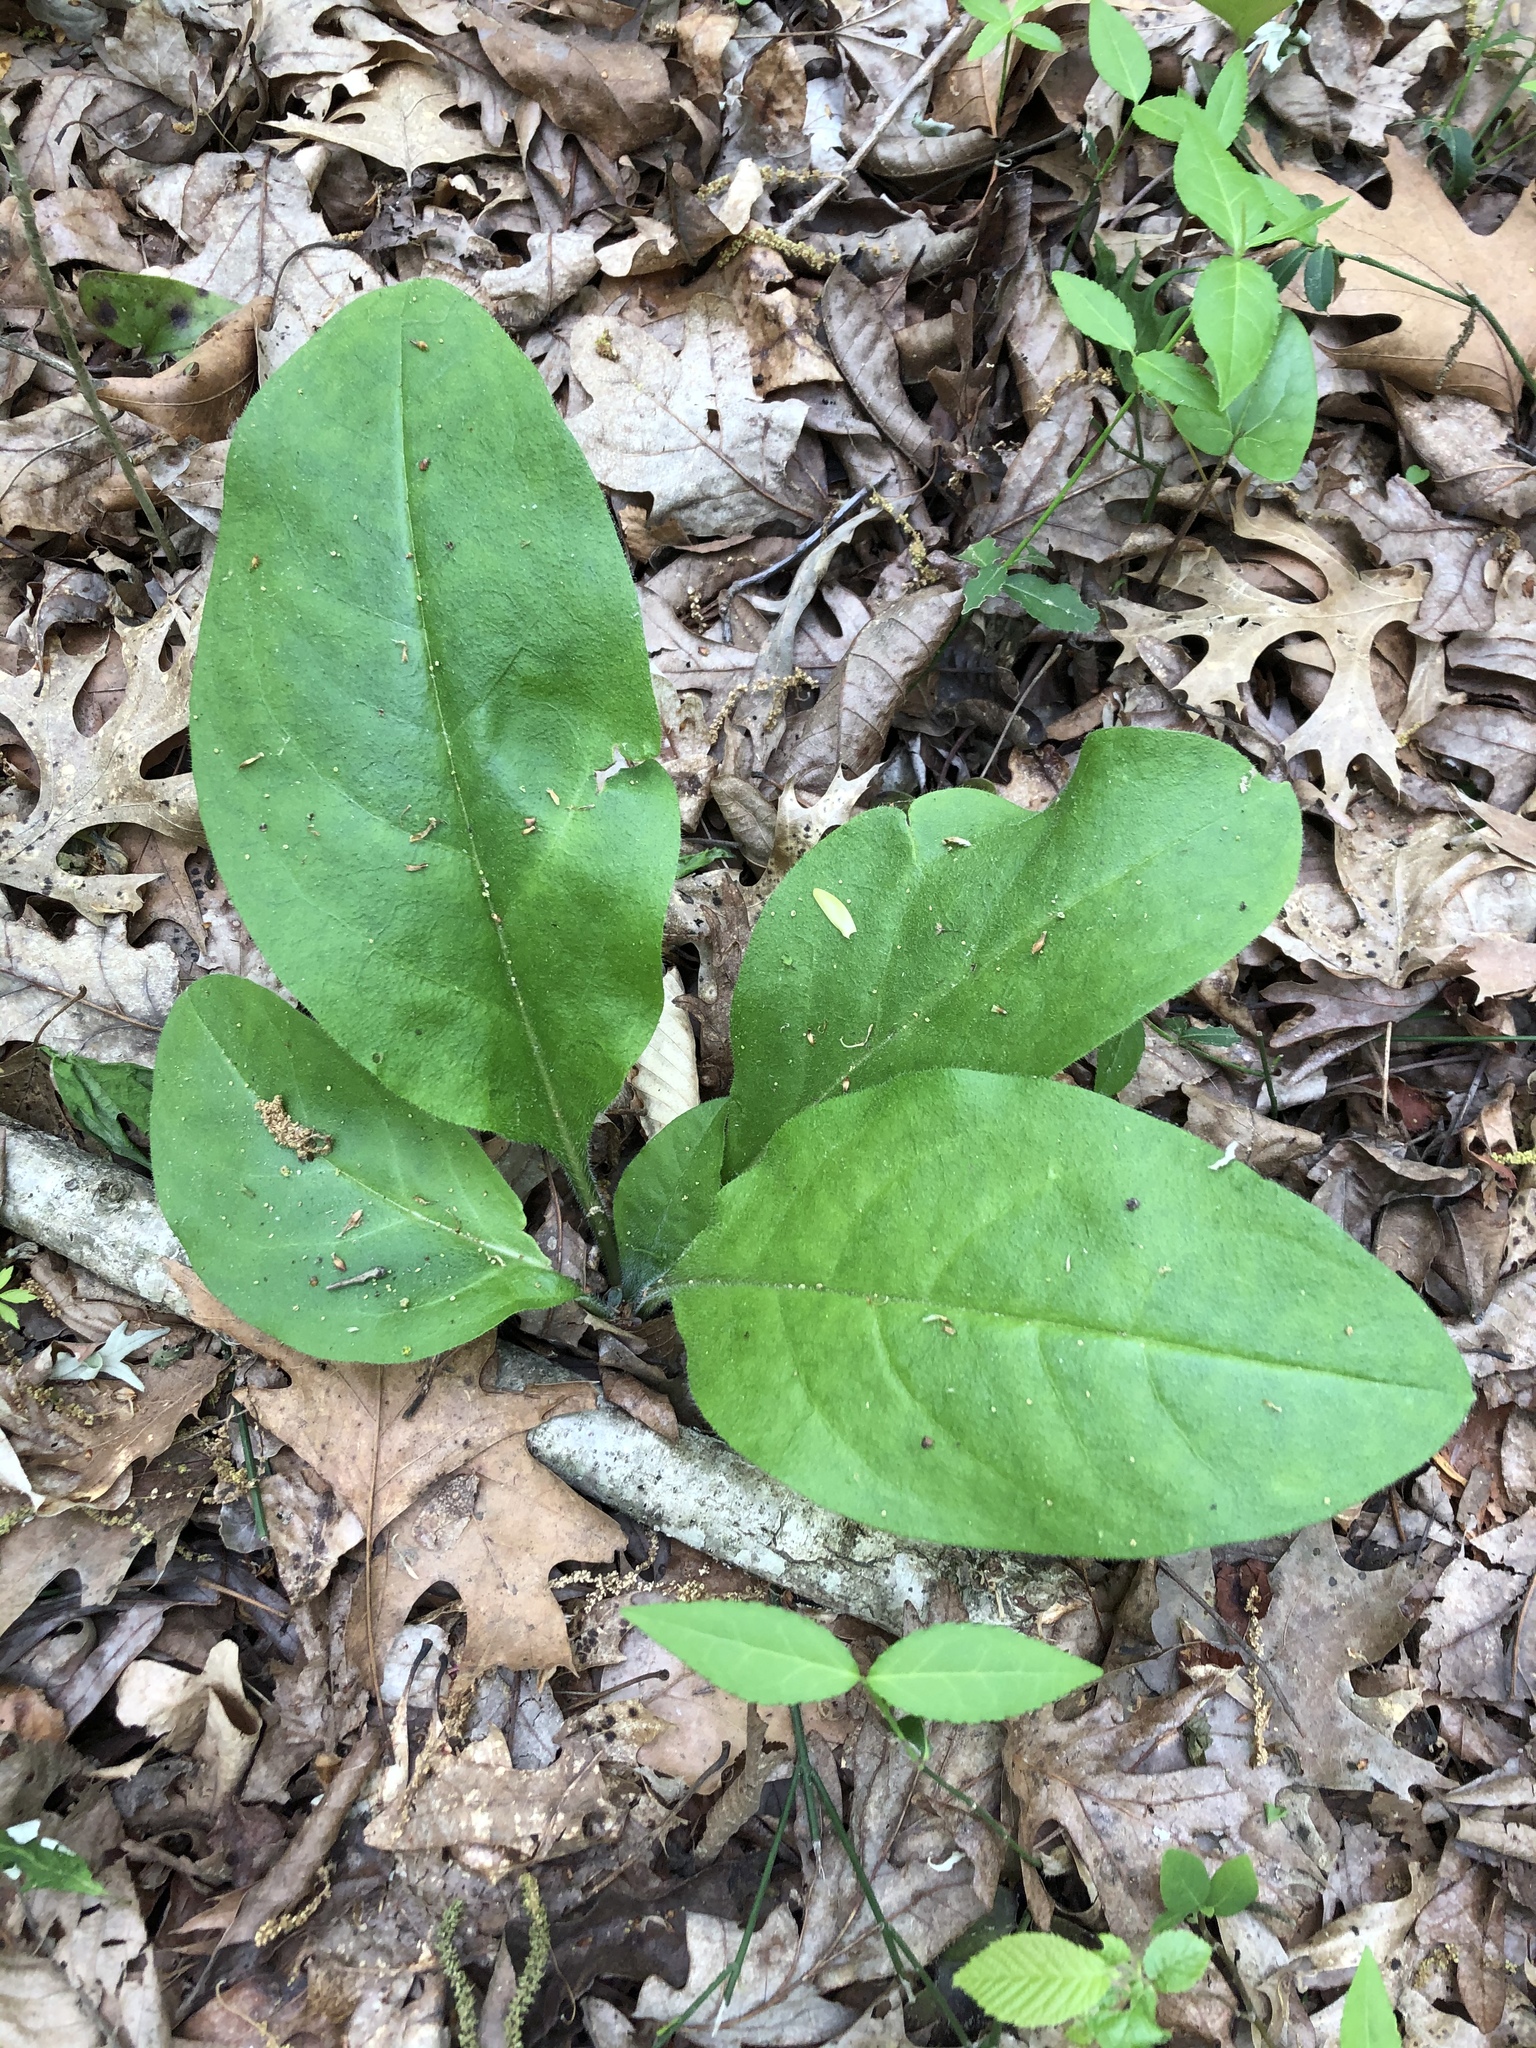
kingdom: Plantae
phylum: Tracheophyta
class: Magnoliopsida
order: Boraginales
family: Boraginaceae
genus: Andersonglossum
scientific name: Andersonglossum virginianum
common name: Wild comfrey
